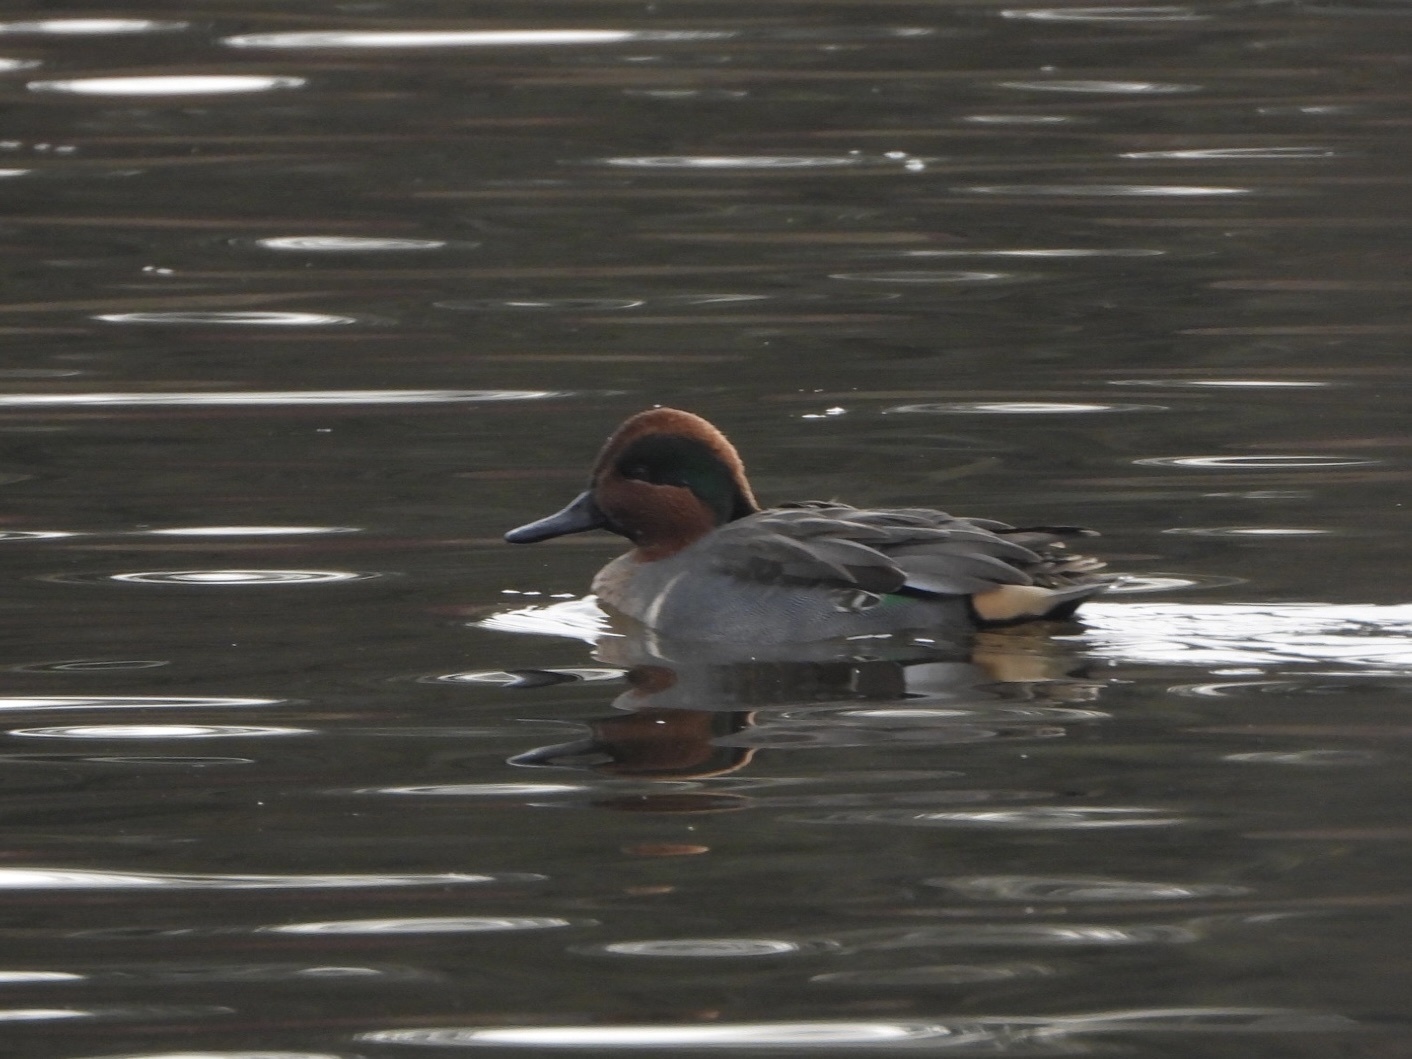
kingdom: Animalia
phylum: Chordata
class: Aves
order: Anseriformes
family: Anatidae
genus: Anas
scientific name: Anas carolinensis
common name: Green-winged teal
